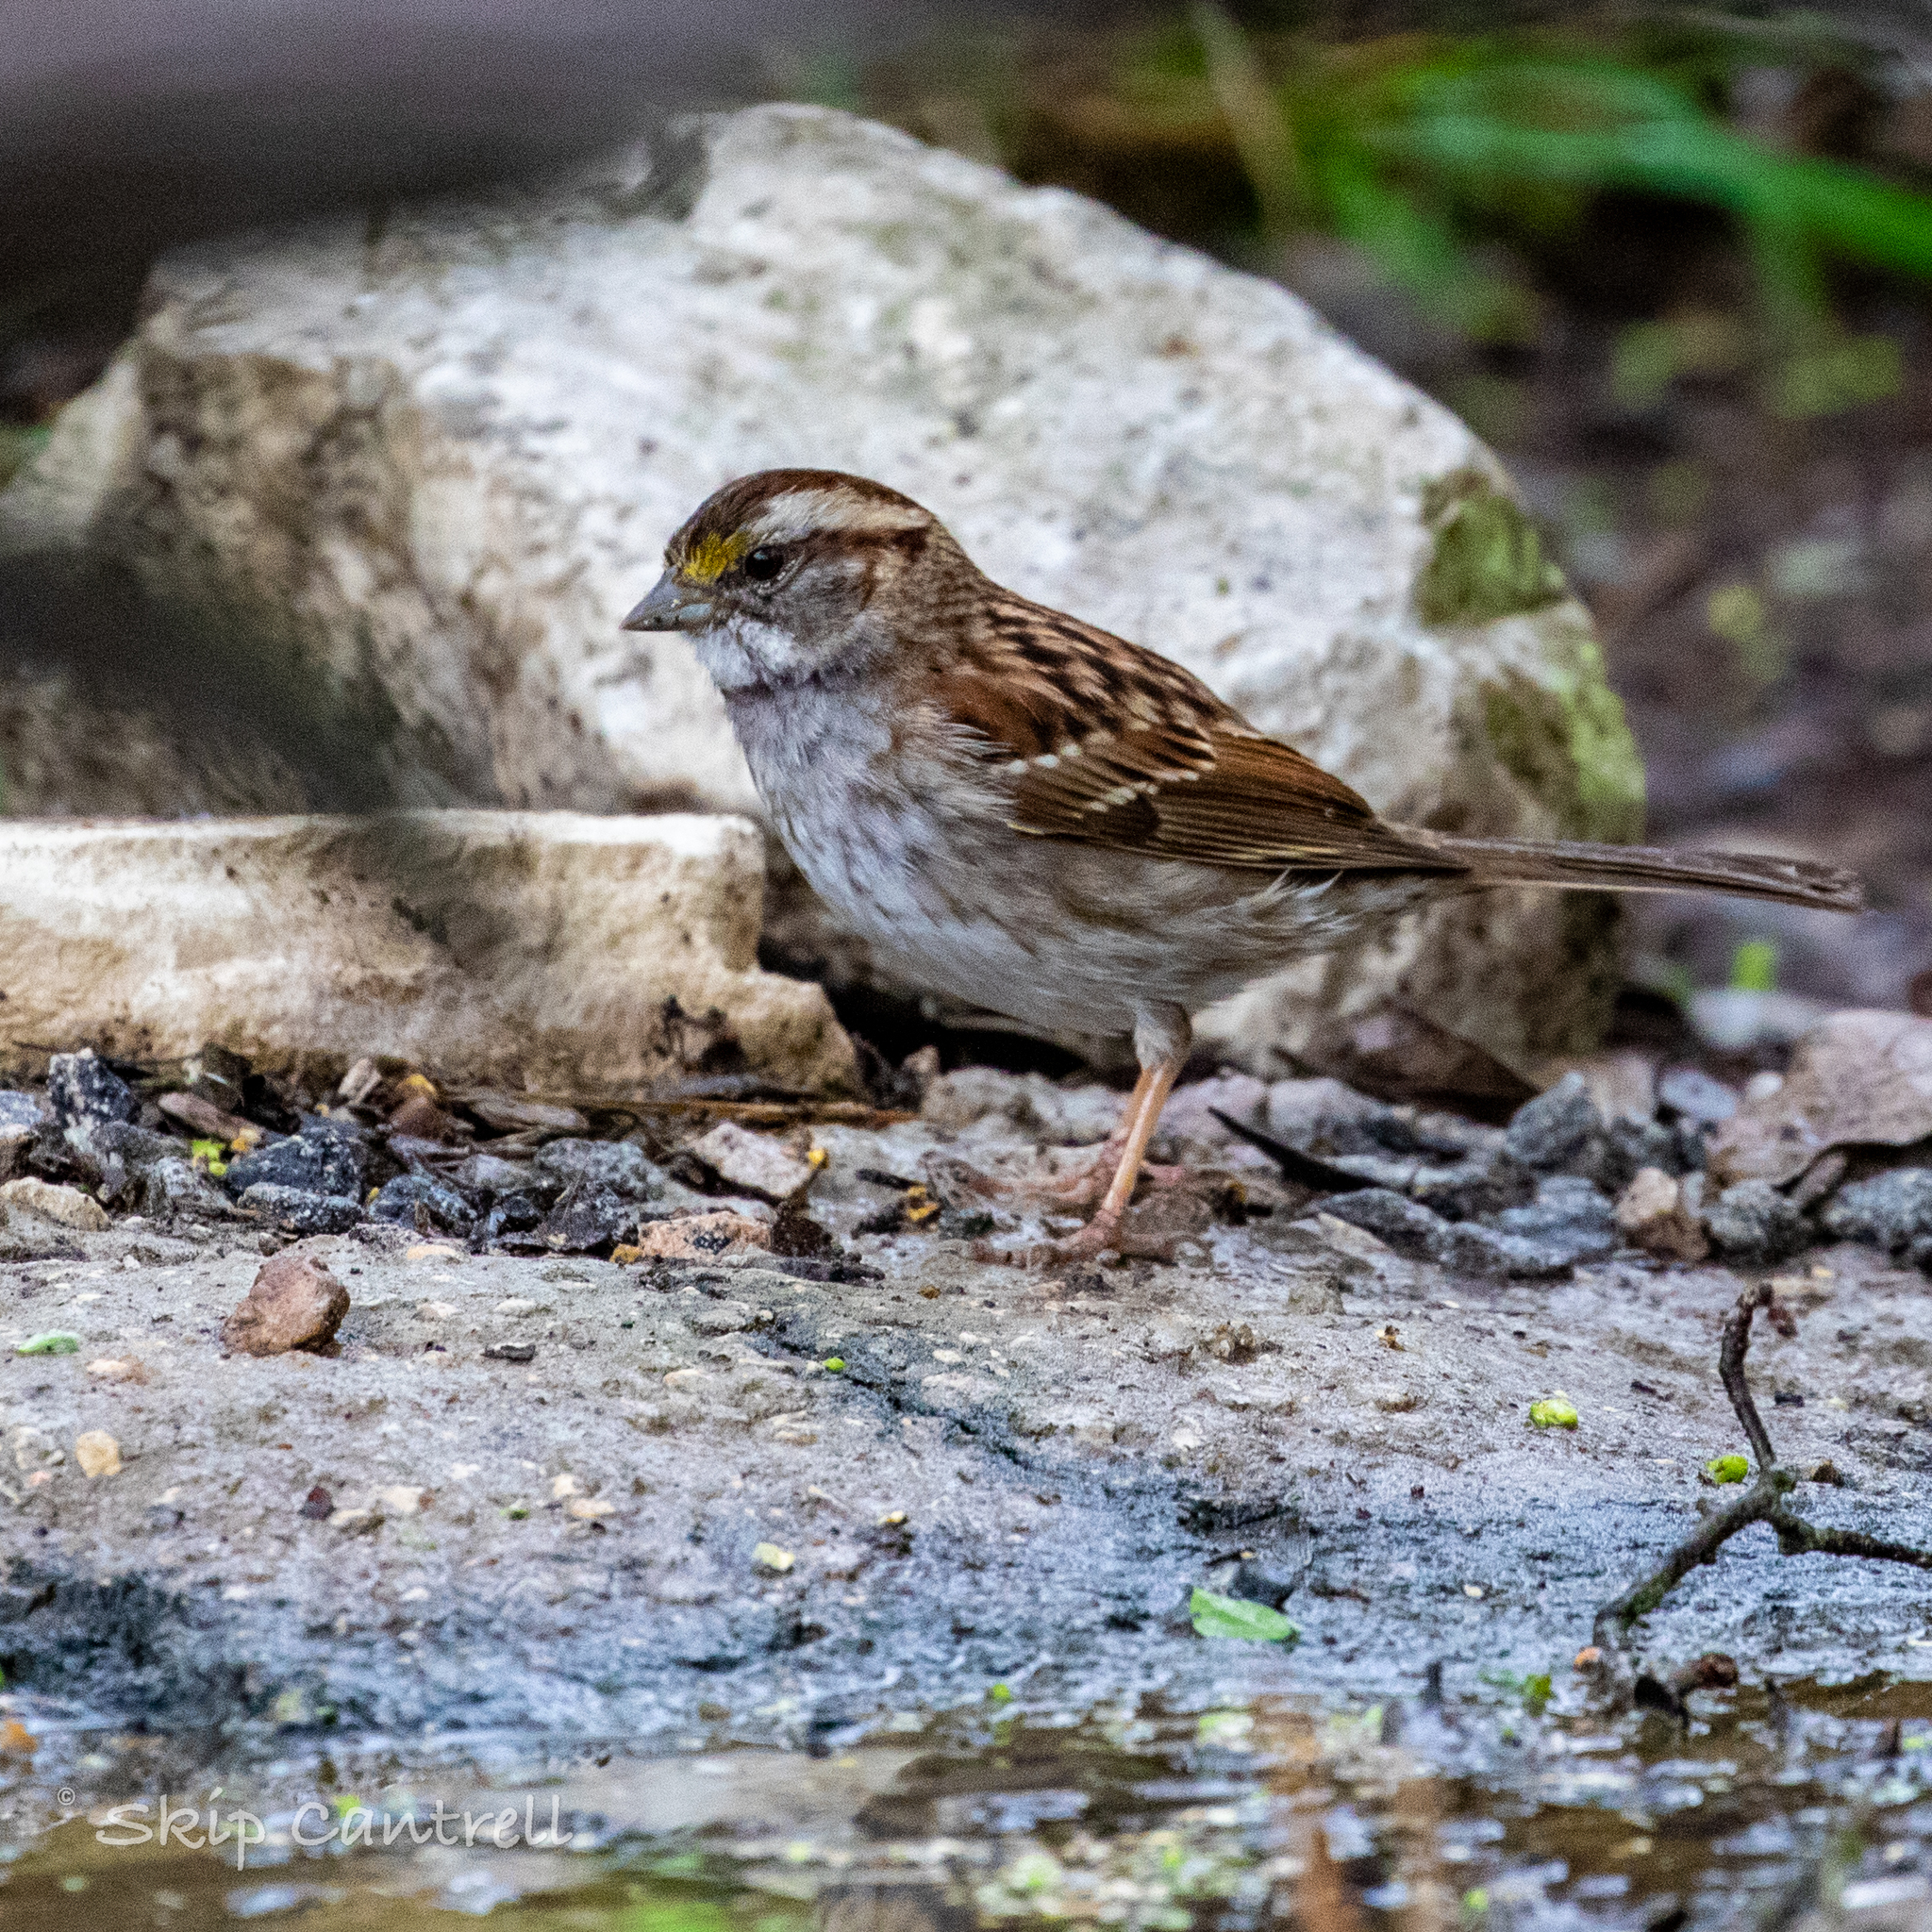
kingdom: Animalia
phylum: Chordata
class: Aves
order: Passeriformes
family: Passerellidae
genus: Zonotrichia
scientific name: Zonotrichia albicollis
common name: White-throated sparrow
